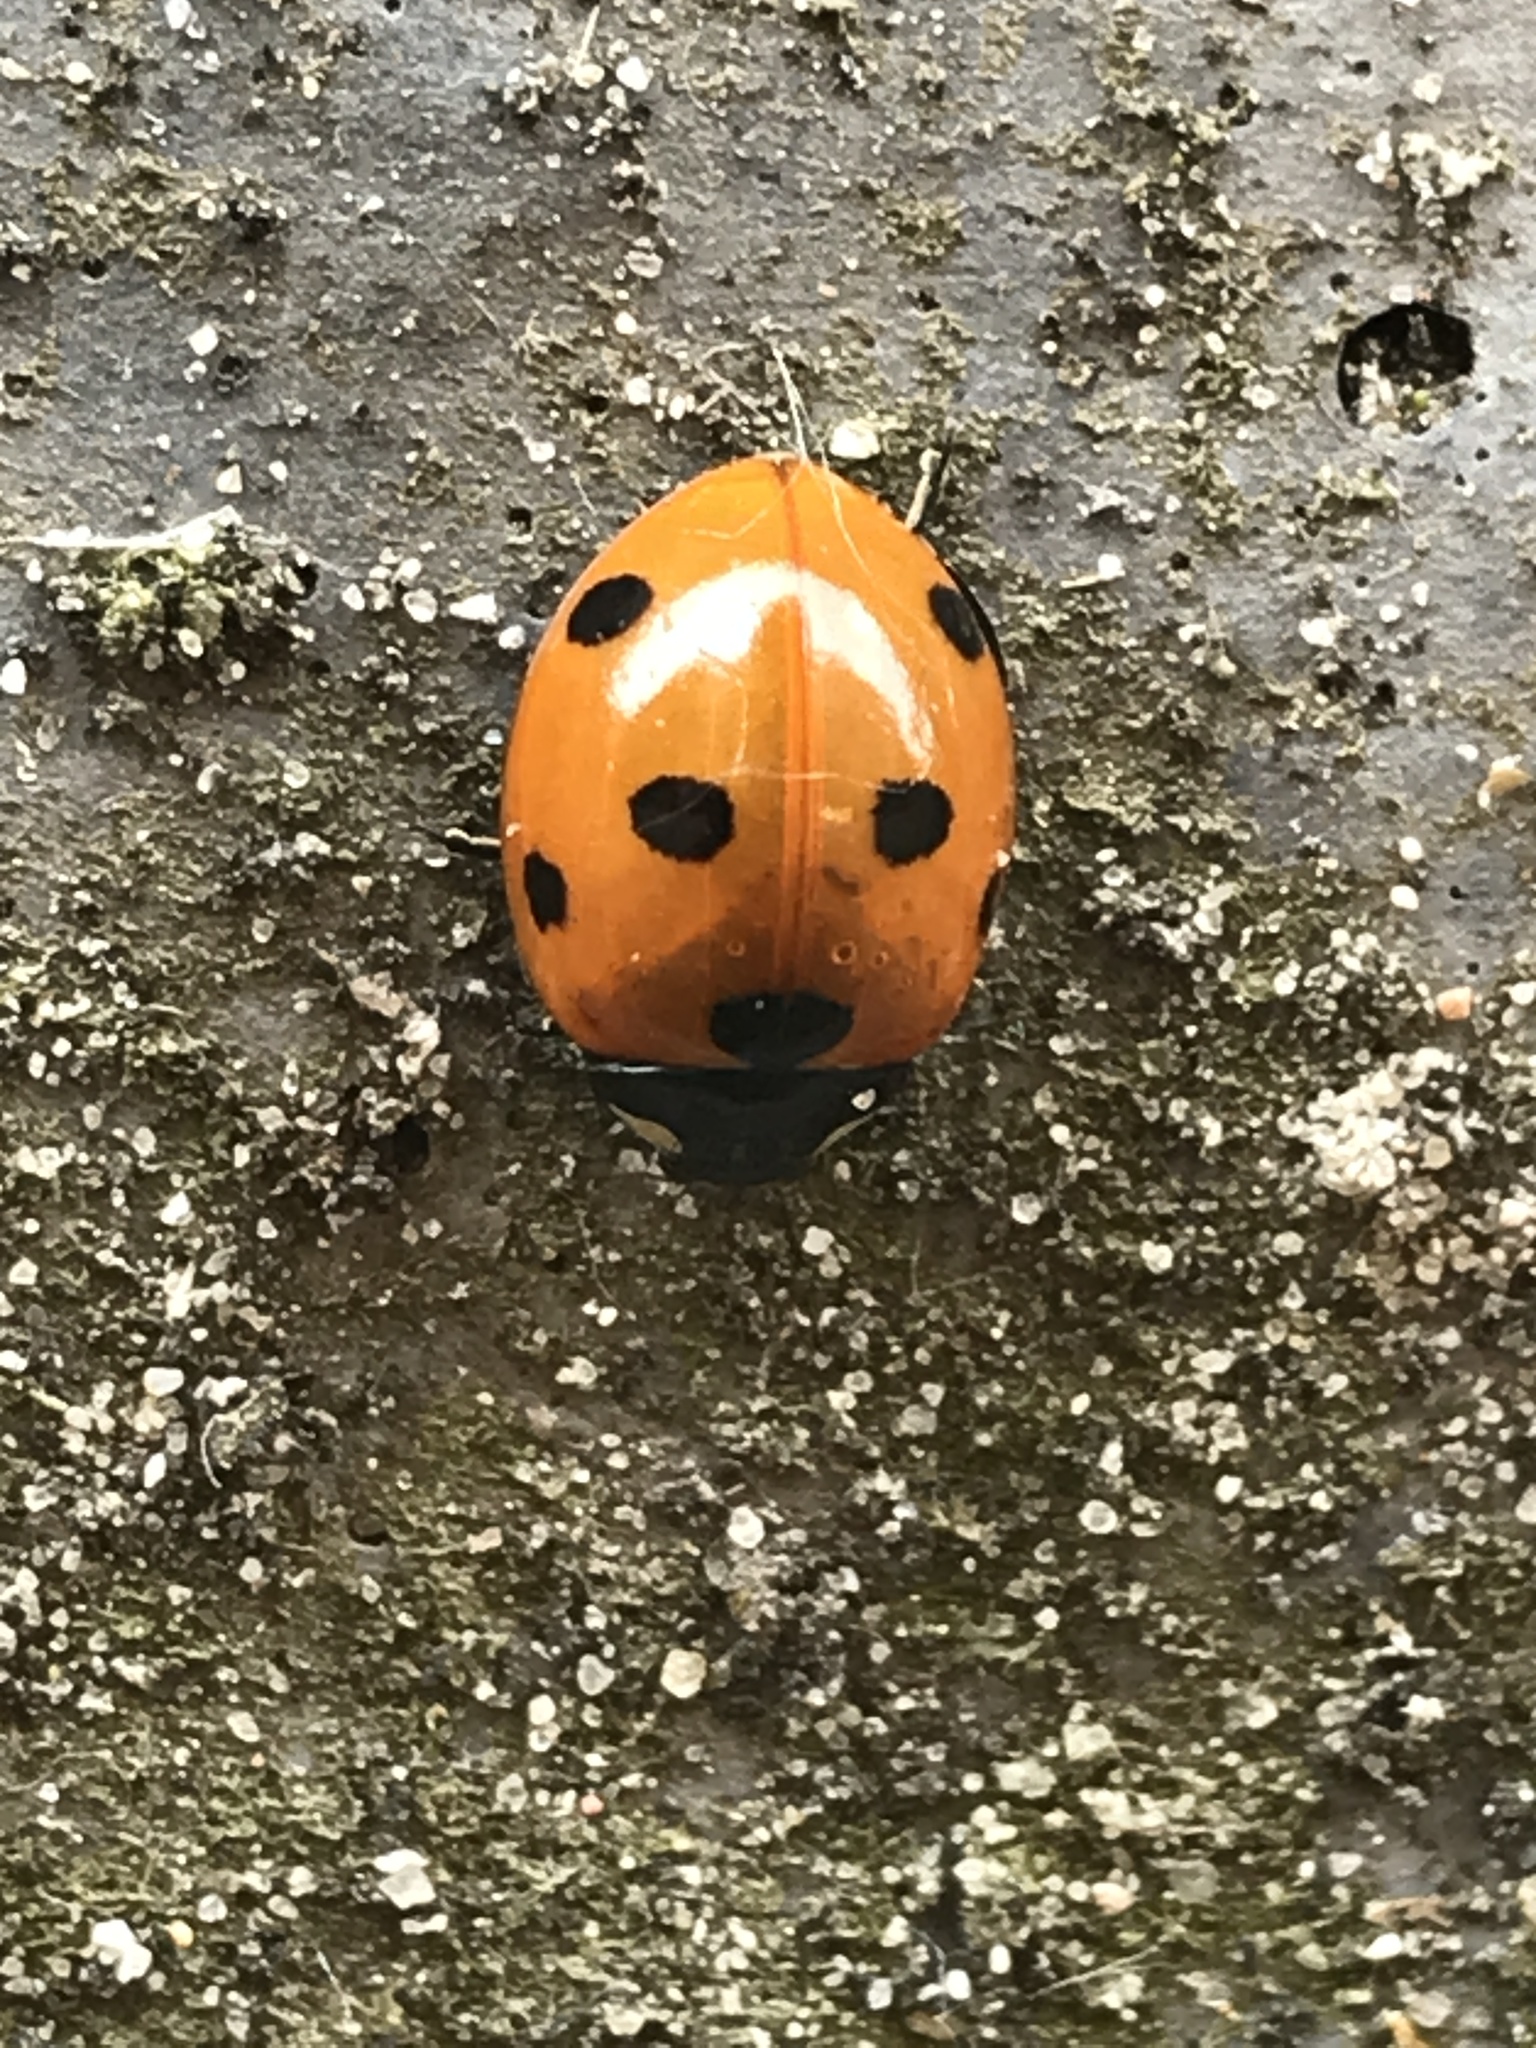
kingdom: Animalia
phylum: Arthropoda
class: Insecta
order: Coleoptera
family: Coccinellidae
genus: Coccinella
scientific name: Coccinella septempunctata
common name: Sevenspotted lady beetle
